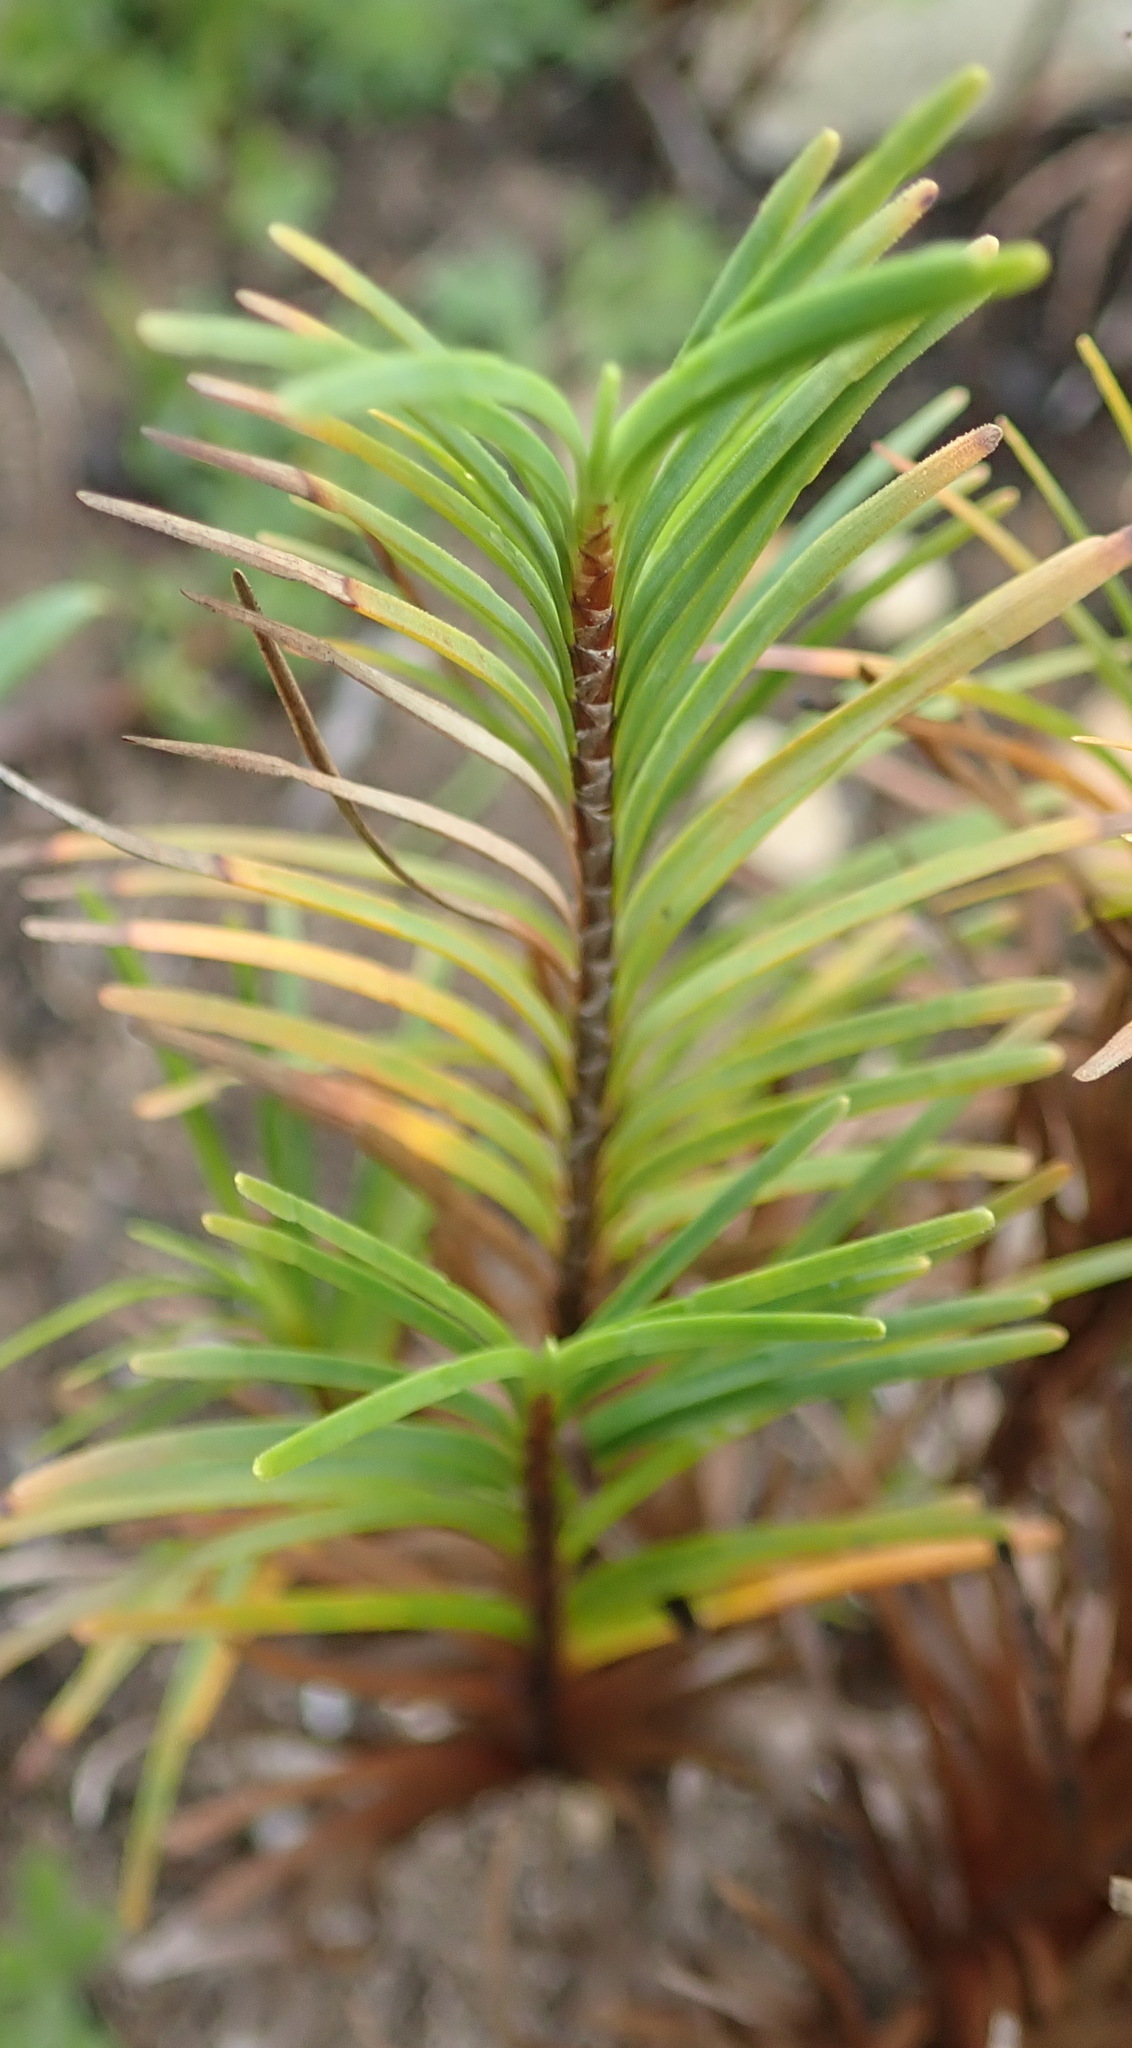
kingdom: Plantae
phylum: Tracheophyta
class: Liliopsida
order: Poales
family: Cyperaceae
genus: Ficinia
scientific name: Ficinia ramosissima
